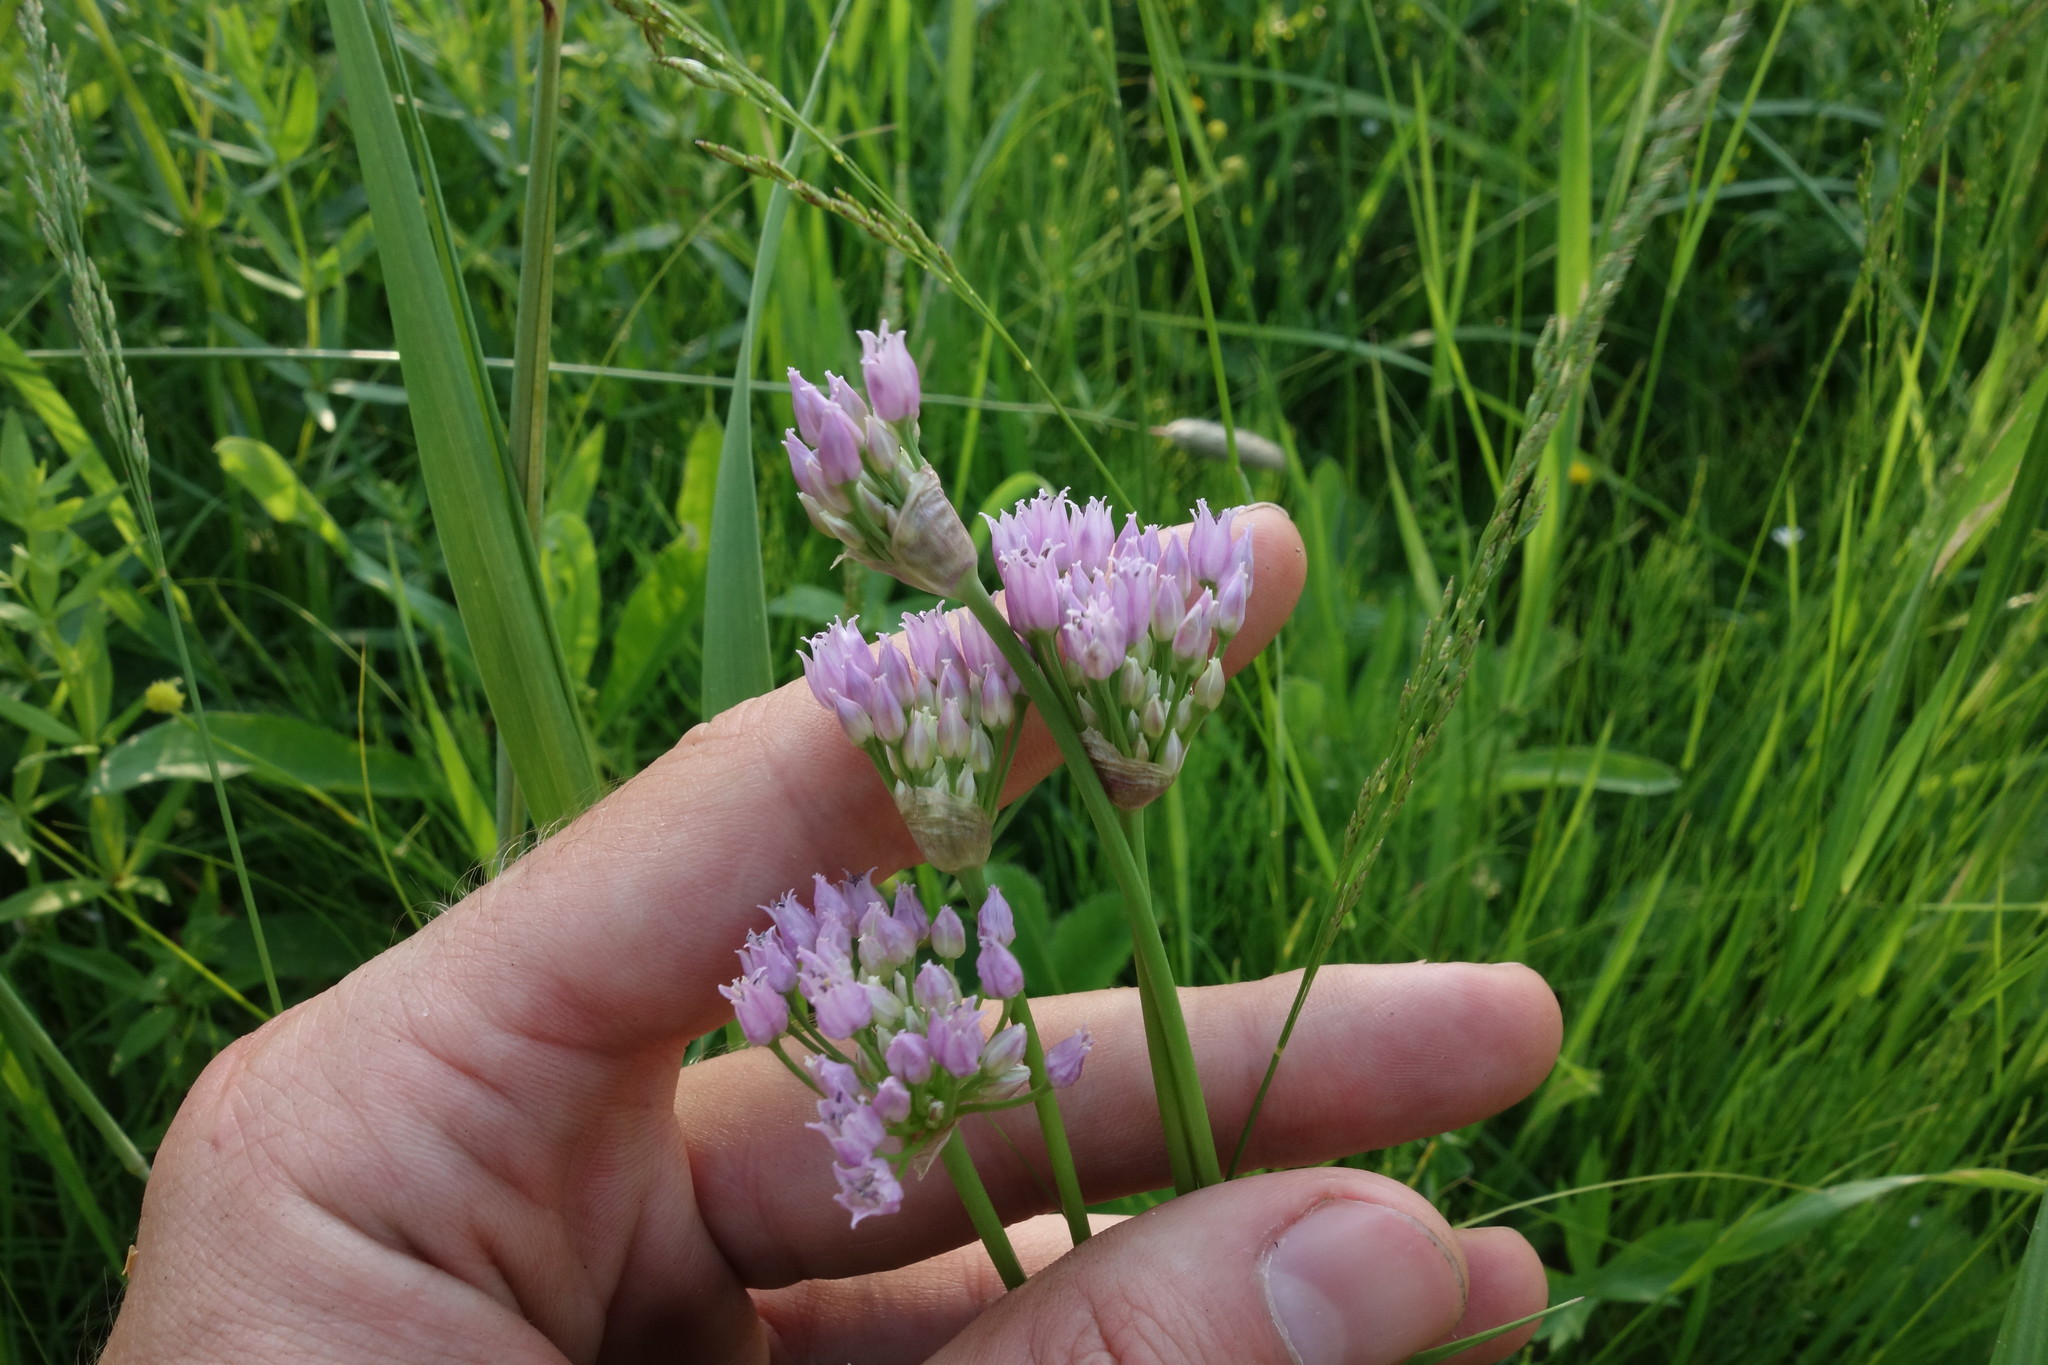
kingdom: Plantae
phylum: Tracheophyta
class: Liliopsida
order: Asparagales
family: Amaryllidaceae
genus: Allium
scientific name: Allium angulosum
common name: Mouse garlic
